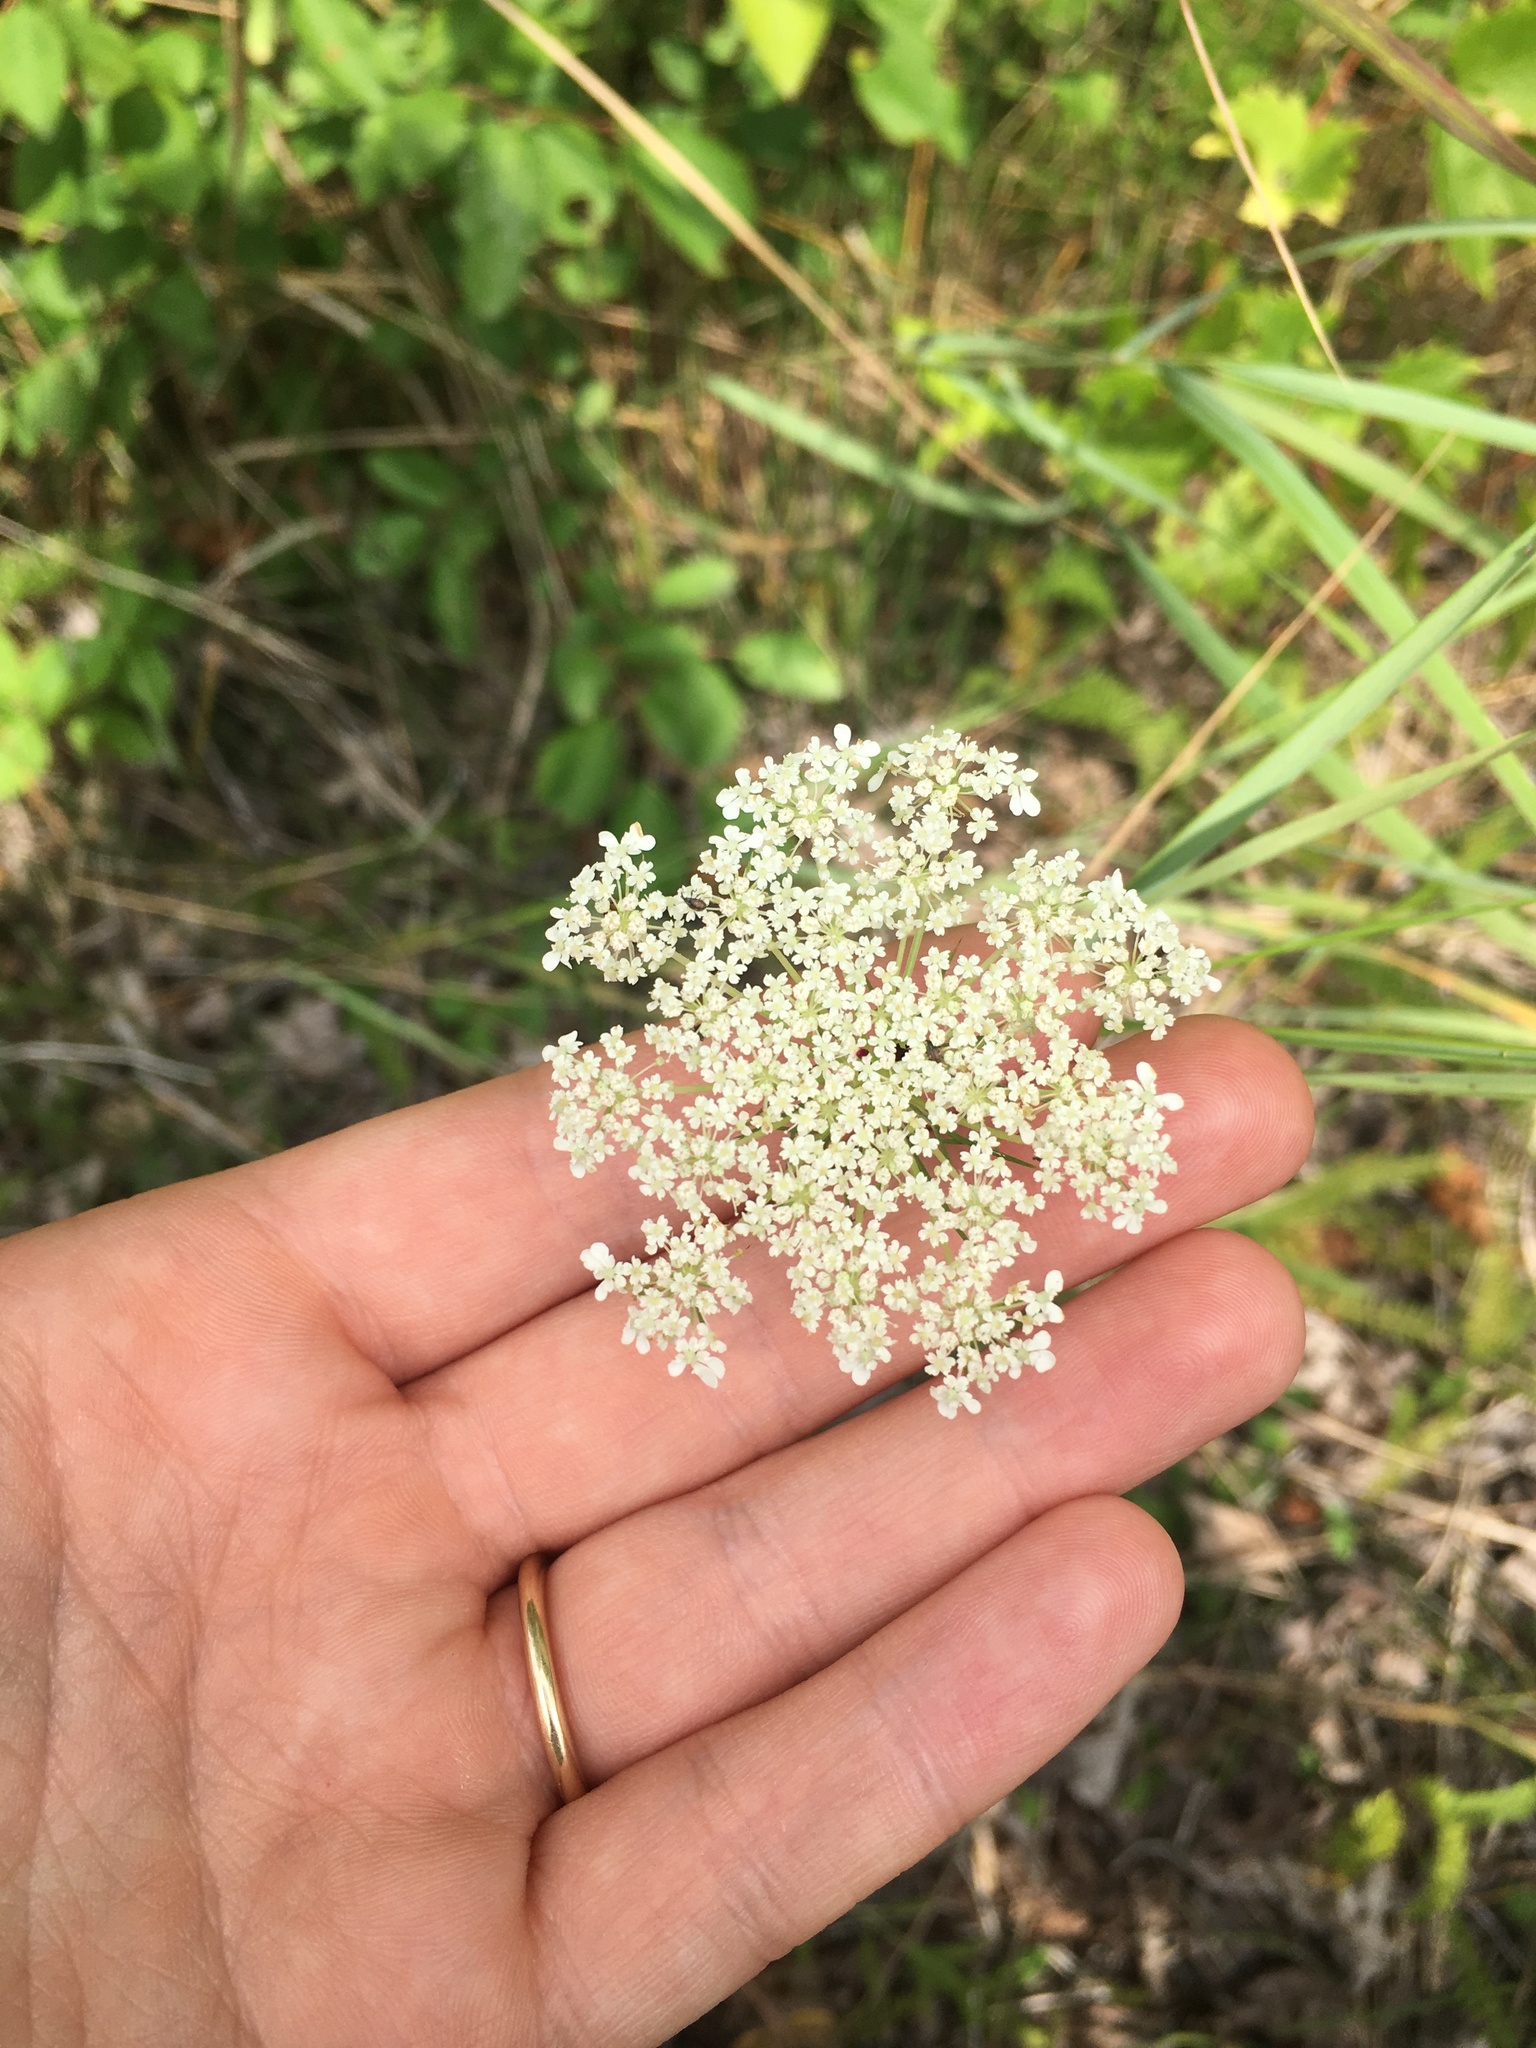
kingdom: Plantae
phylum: Tracheophyta
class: Magnoliopsida
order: Apiales
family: Apiaceae
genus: Daucus
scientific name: Daucus carota
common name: Wild carrot
